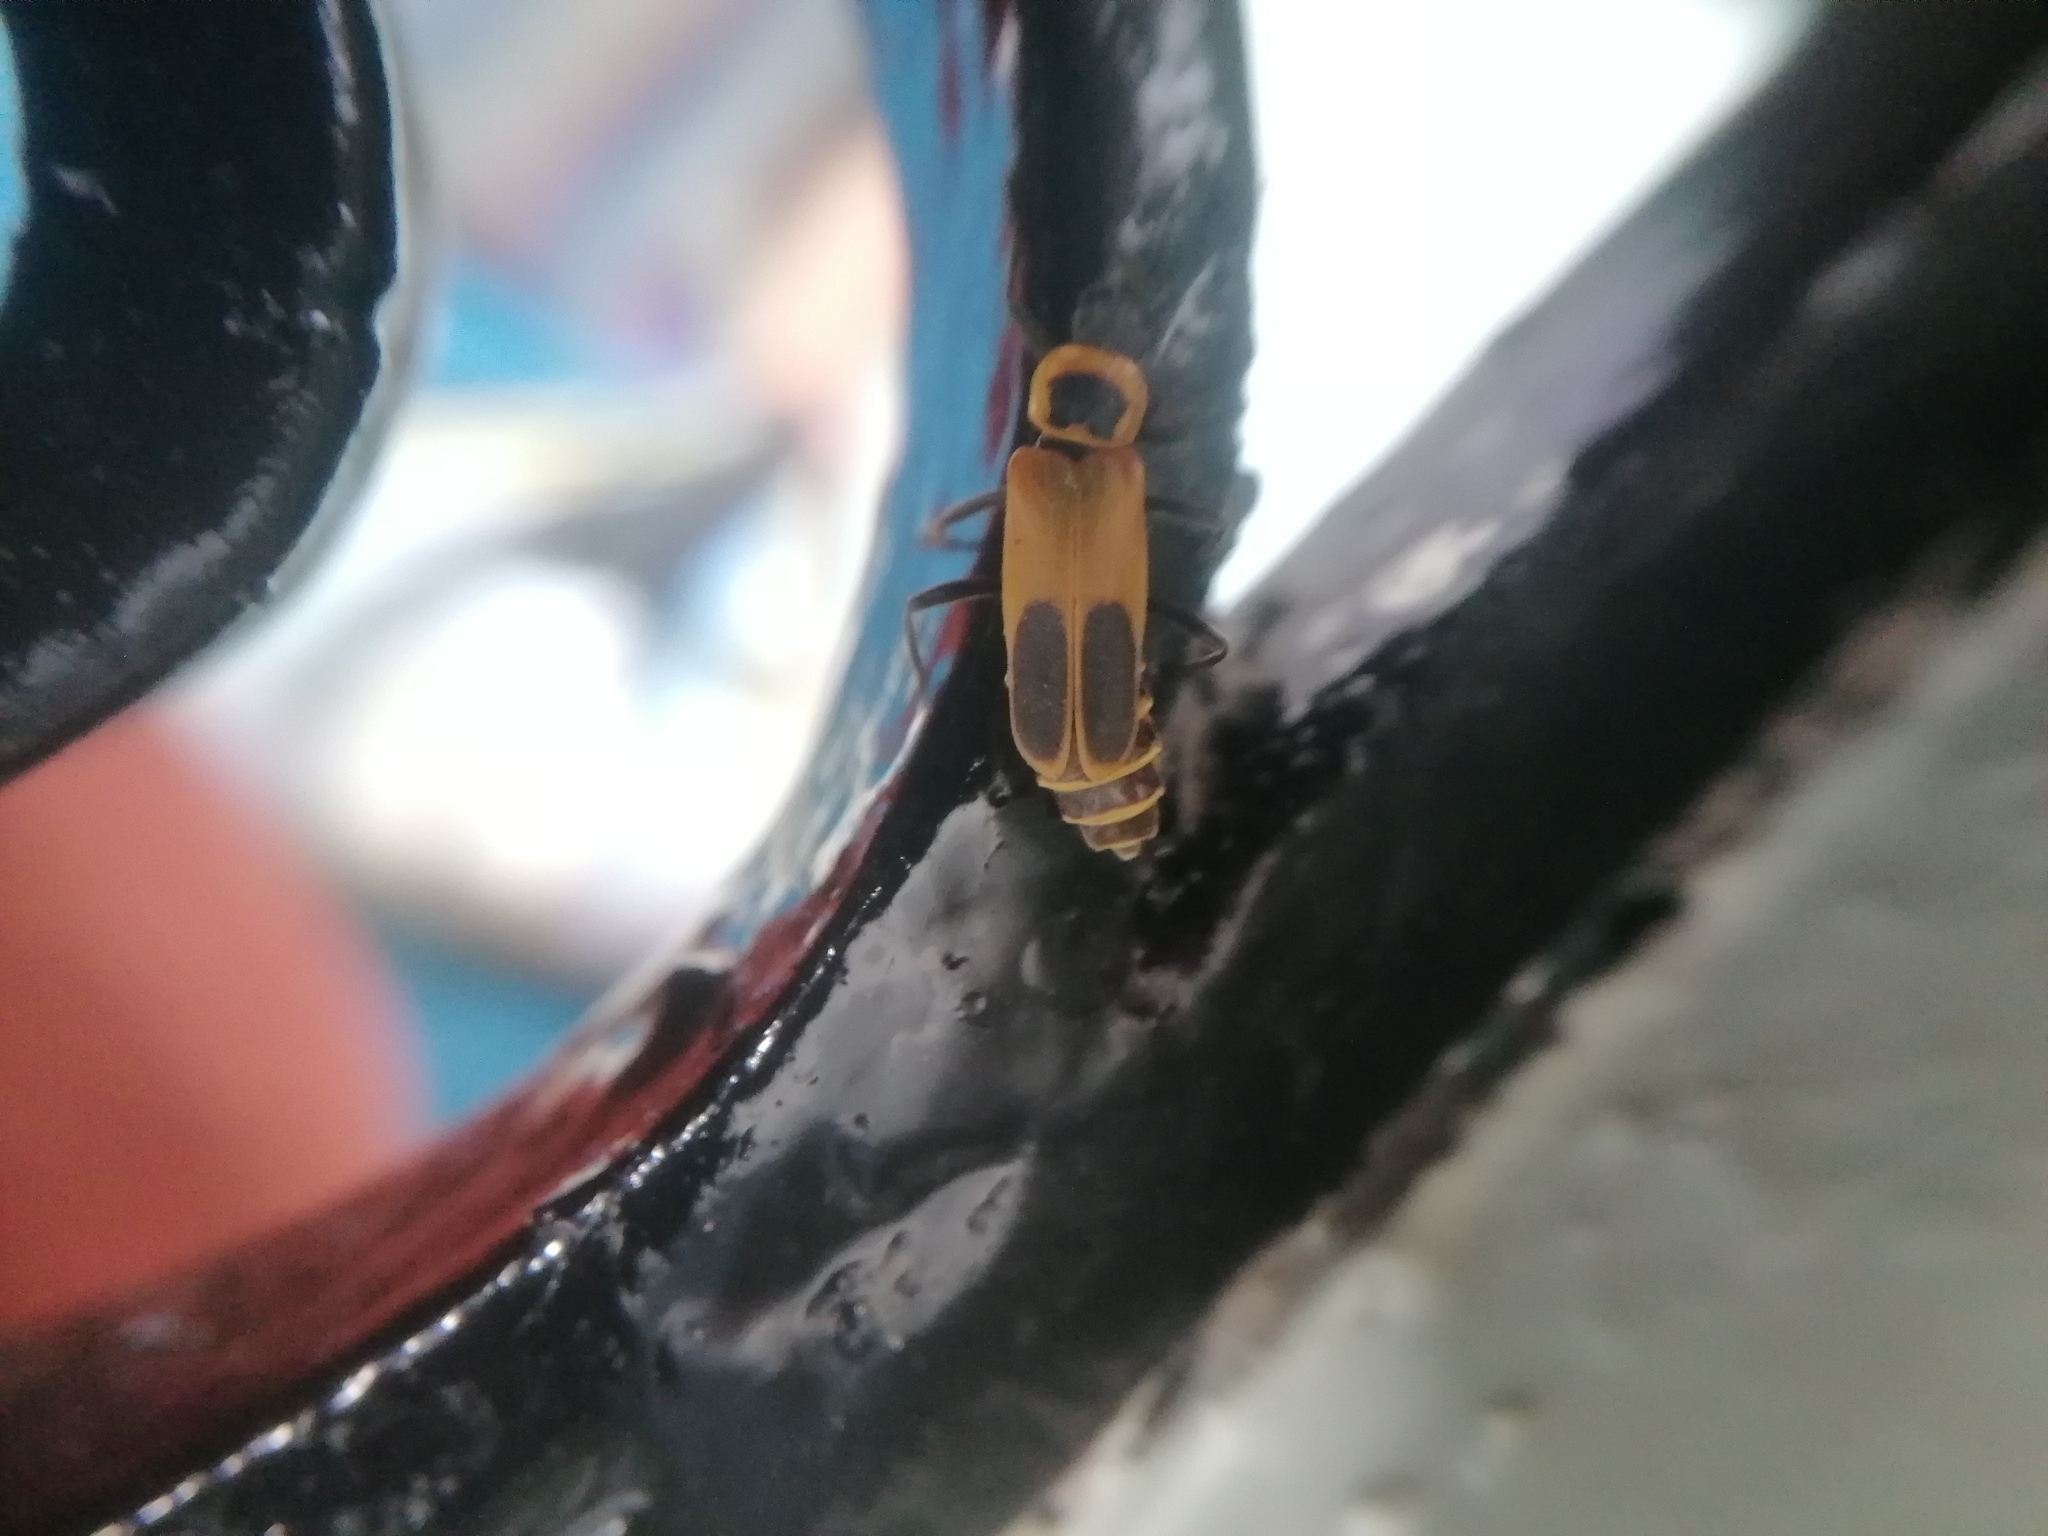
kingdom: Animalia
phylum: Arthropoda
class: Insecta
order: Coleoptera
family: Cantharidae
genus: Chauliognathus
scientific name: Chauliognathus pensylvanicus
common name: Goldenrod soldier beetle
